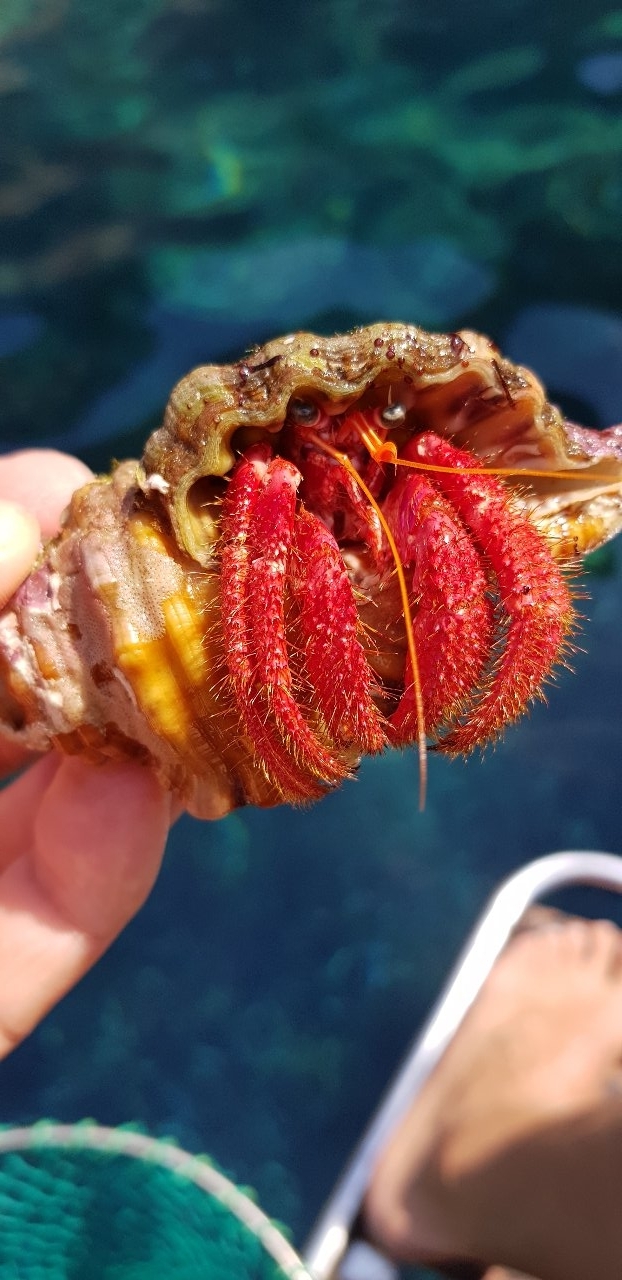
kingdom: Animalia
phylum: Arthropoda
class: Malacostraca
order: Decapoda
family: Diogenidae
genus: Dardanus
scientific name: Dardanus calidus
